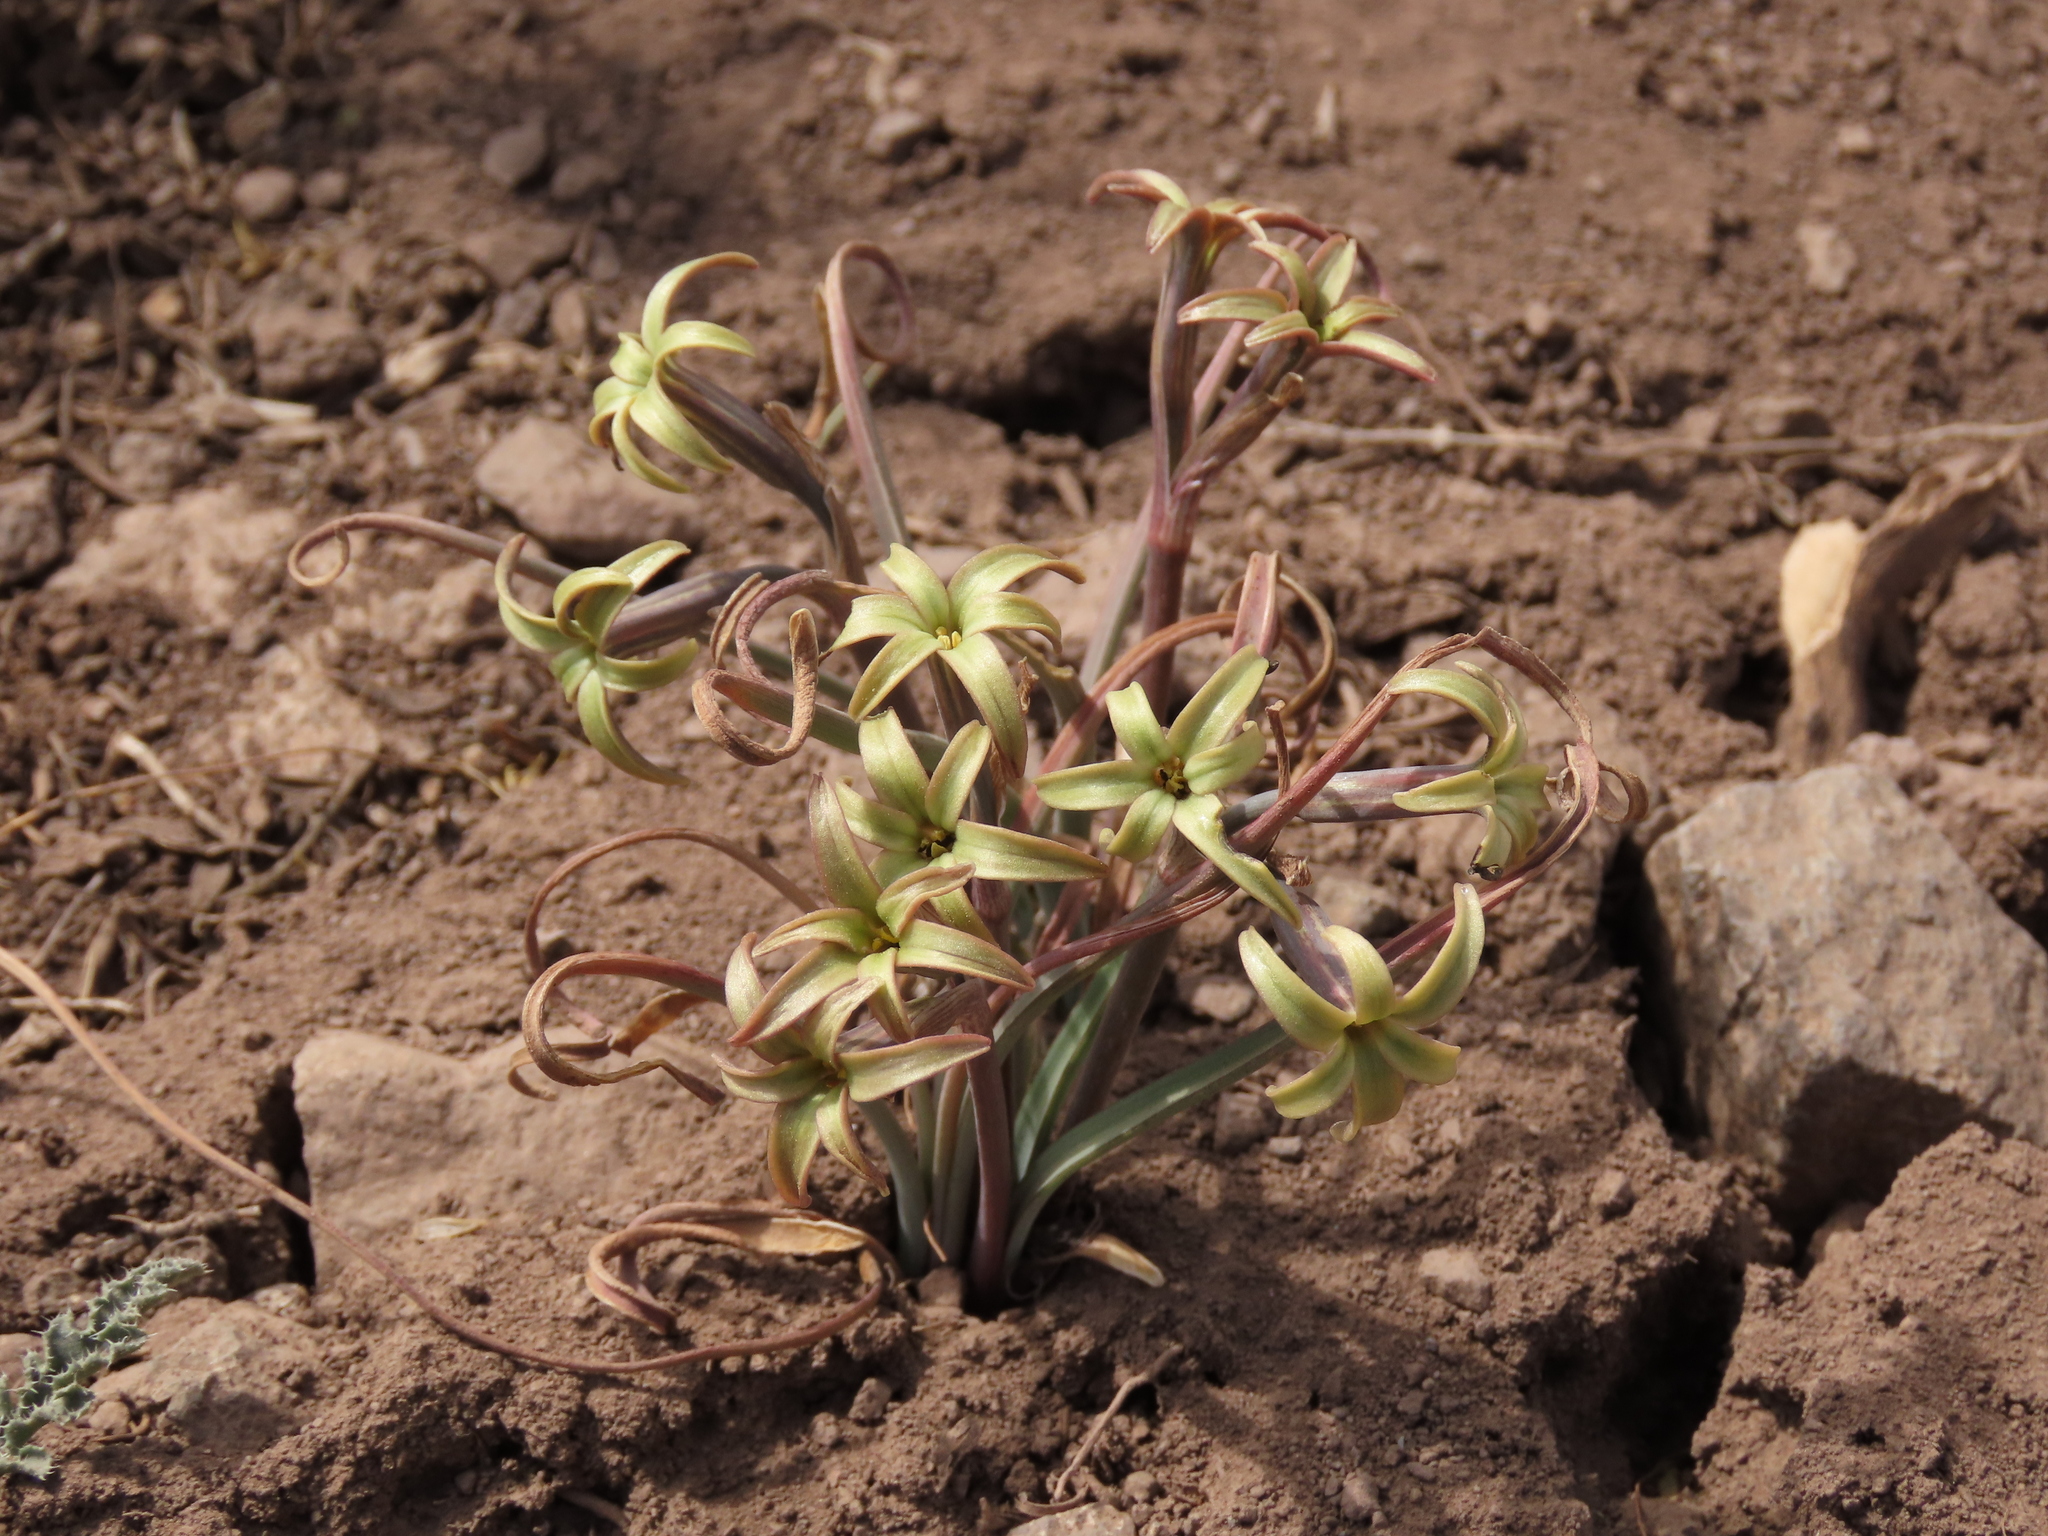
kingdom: Plantae
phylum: Tracheophyta
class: Liliopsida
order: Asparagales
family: Amaryllidaceae
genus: Tristagma
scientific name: Tristagma nivale
